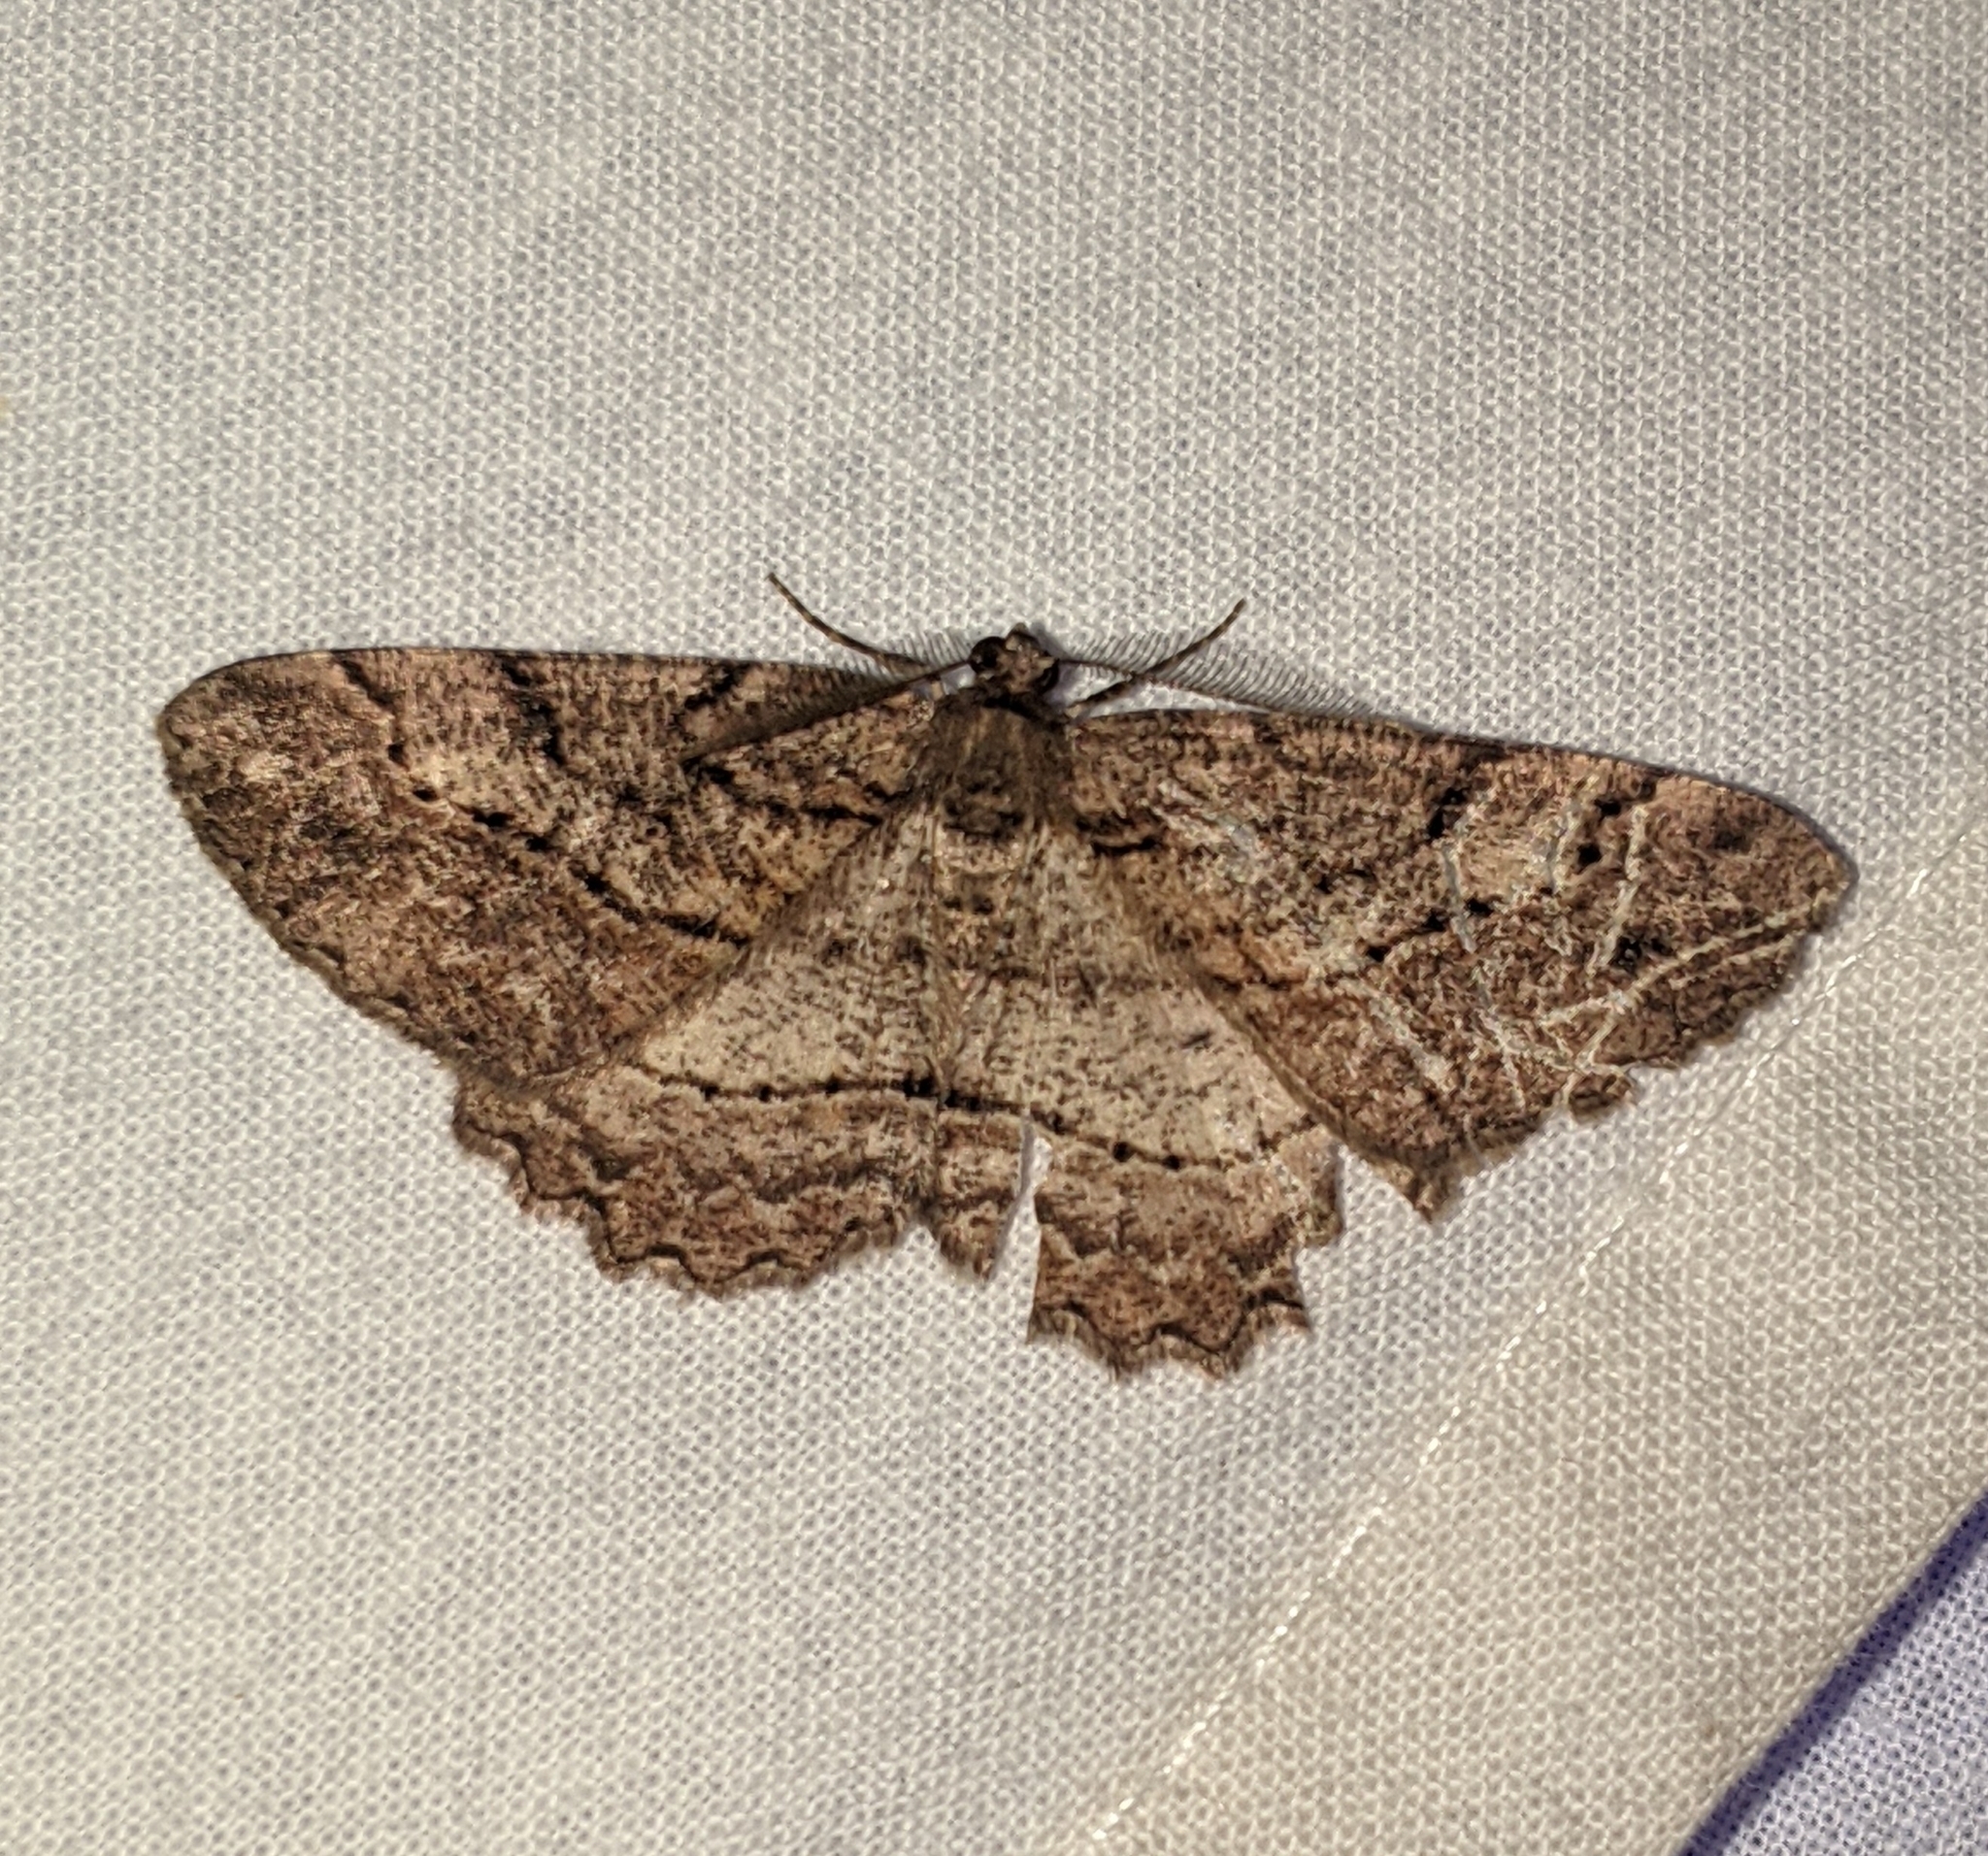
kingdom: Animalia
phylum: Arthropoda
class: Insecta
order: Lepidoptera
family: Geometridae
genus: Neoalcis
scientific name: Neoalcis californiaria
